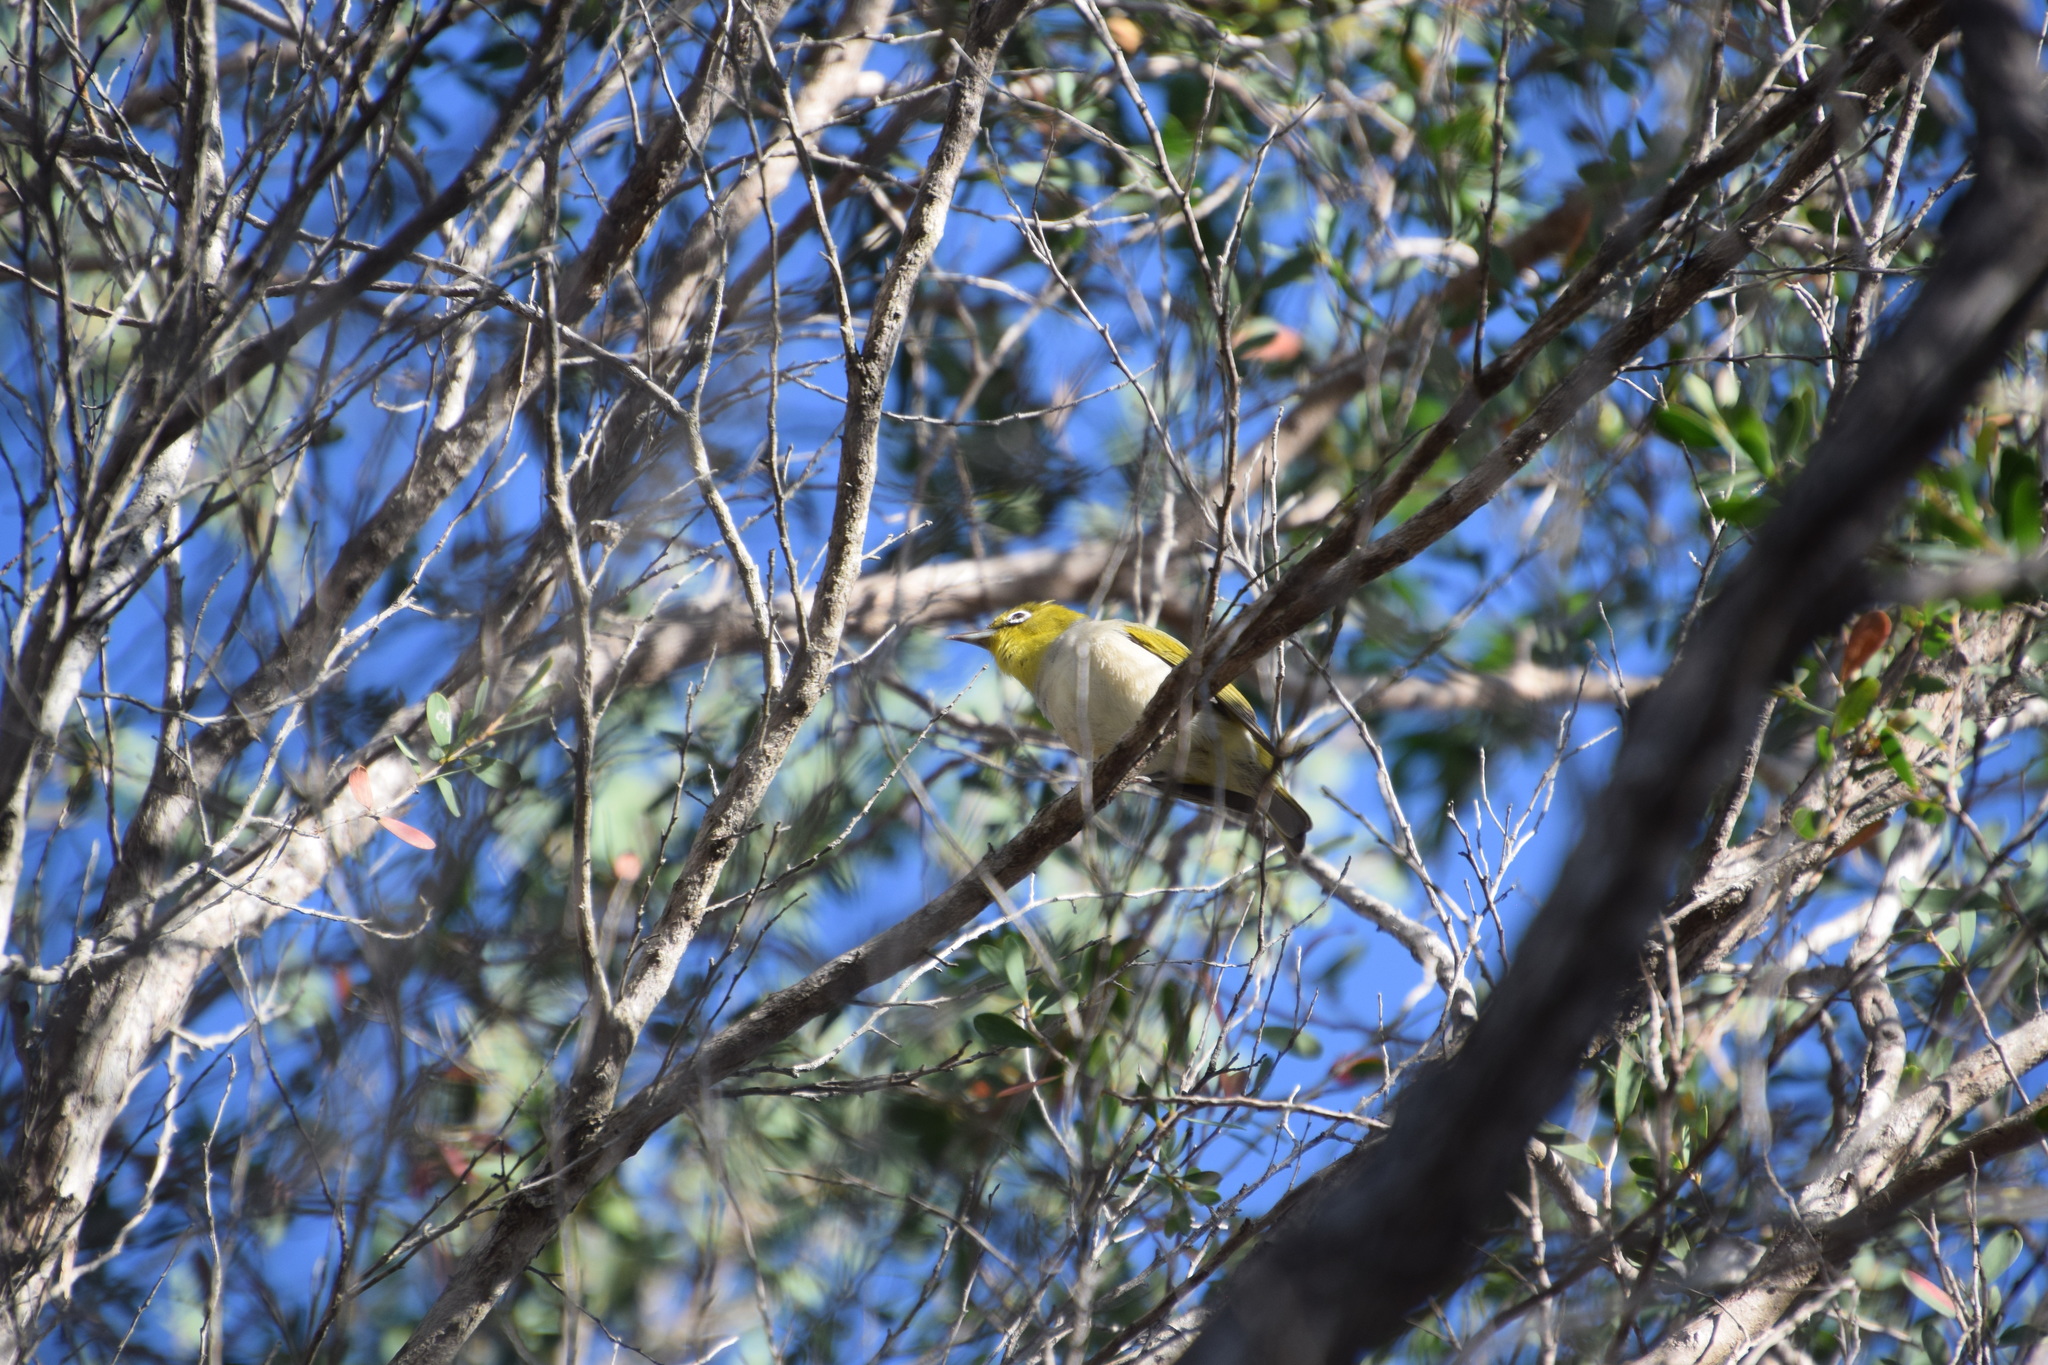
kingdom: Animalia
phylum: Chordata
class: Aves
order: Passeriformes
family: Zosteropidae
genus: Zosterops
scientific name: Zosterops lateralis
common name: Silvereye
